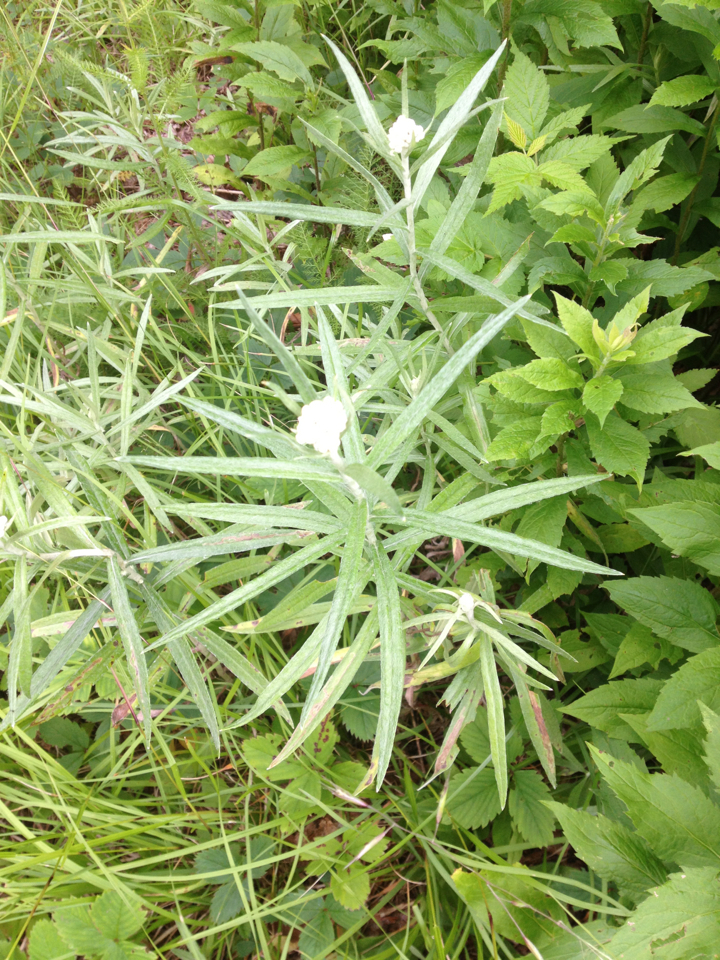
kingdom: Plantae
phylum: Tracheophyta
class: Magnoliopsida
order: Asterales
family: Asteraceae
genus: Anaphalis
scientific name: Anaphalis margaritacea
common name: Pearly everlasting
